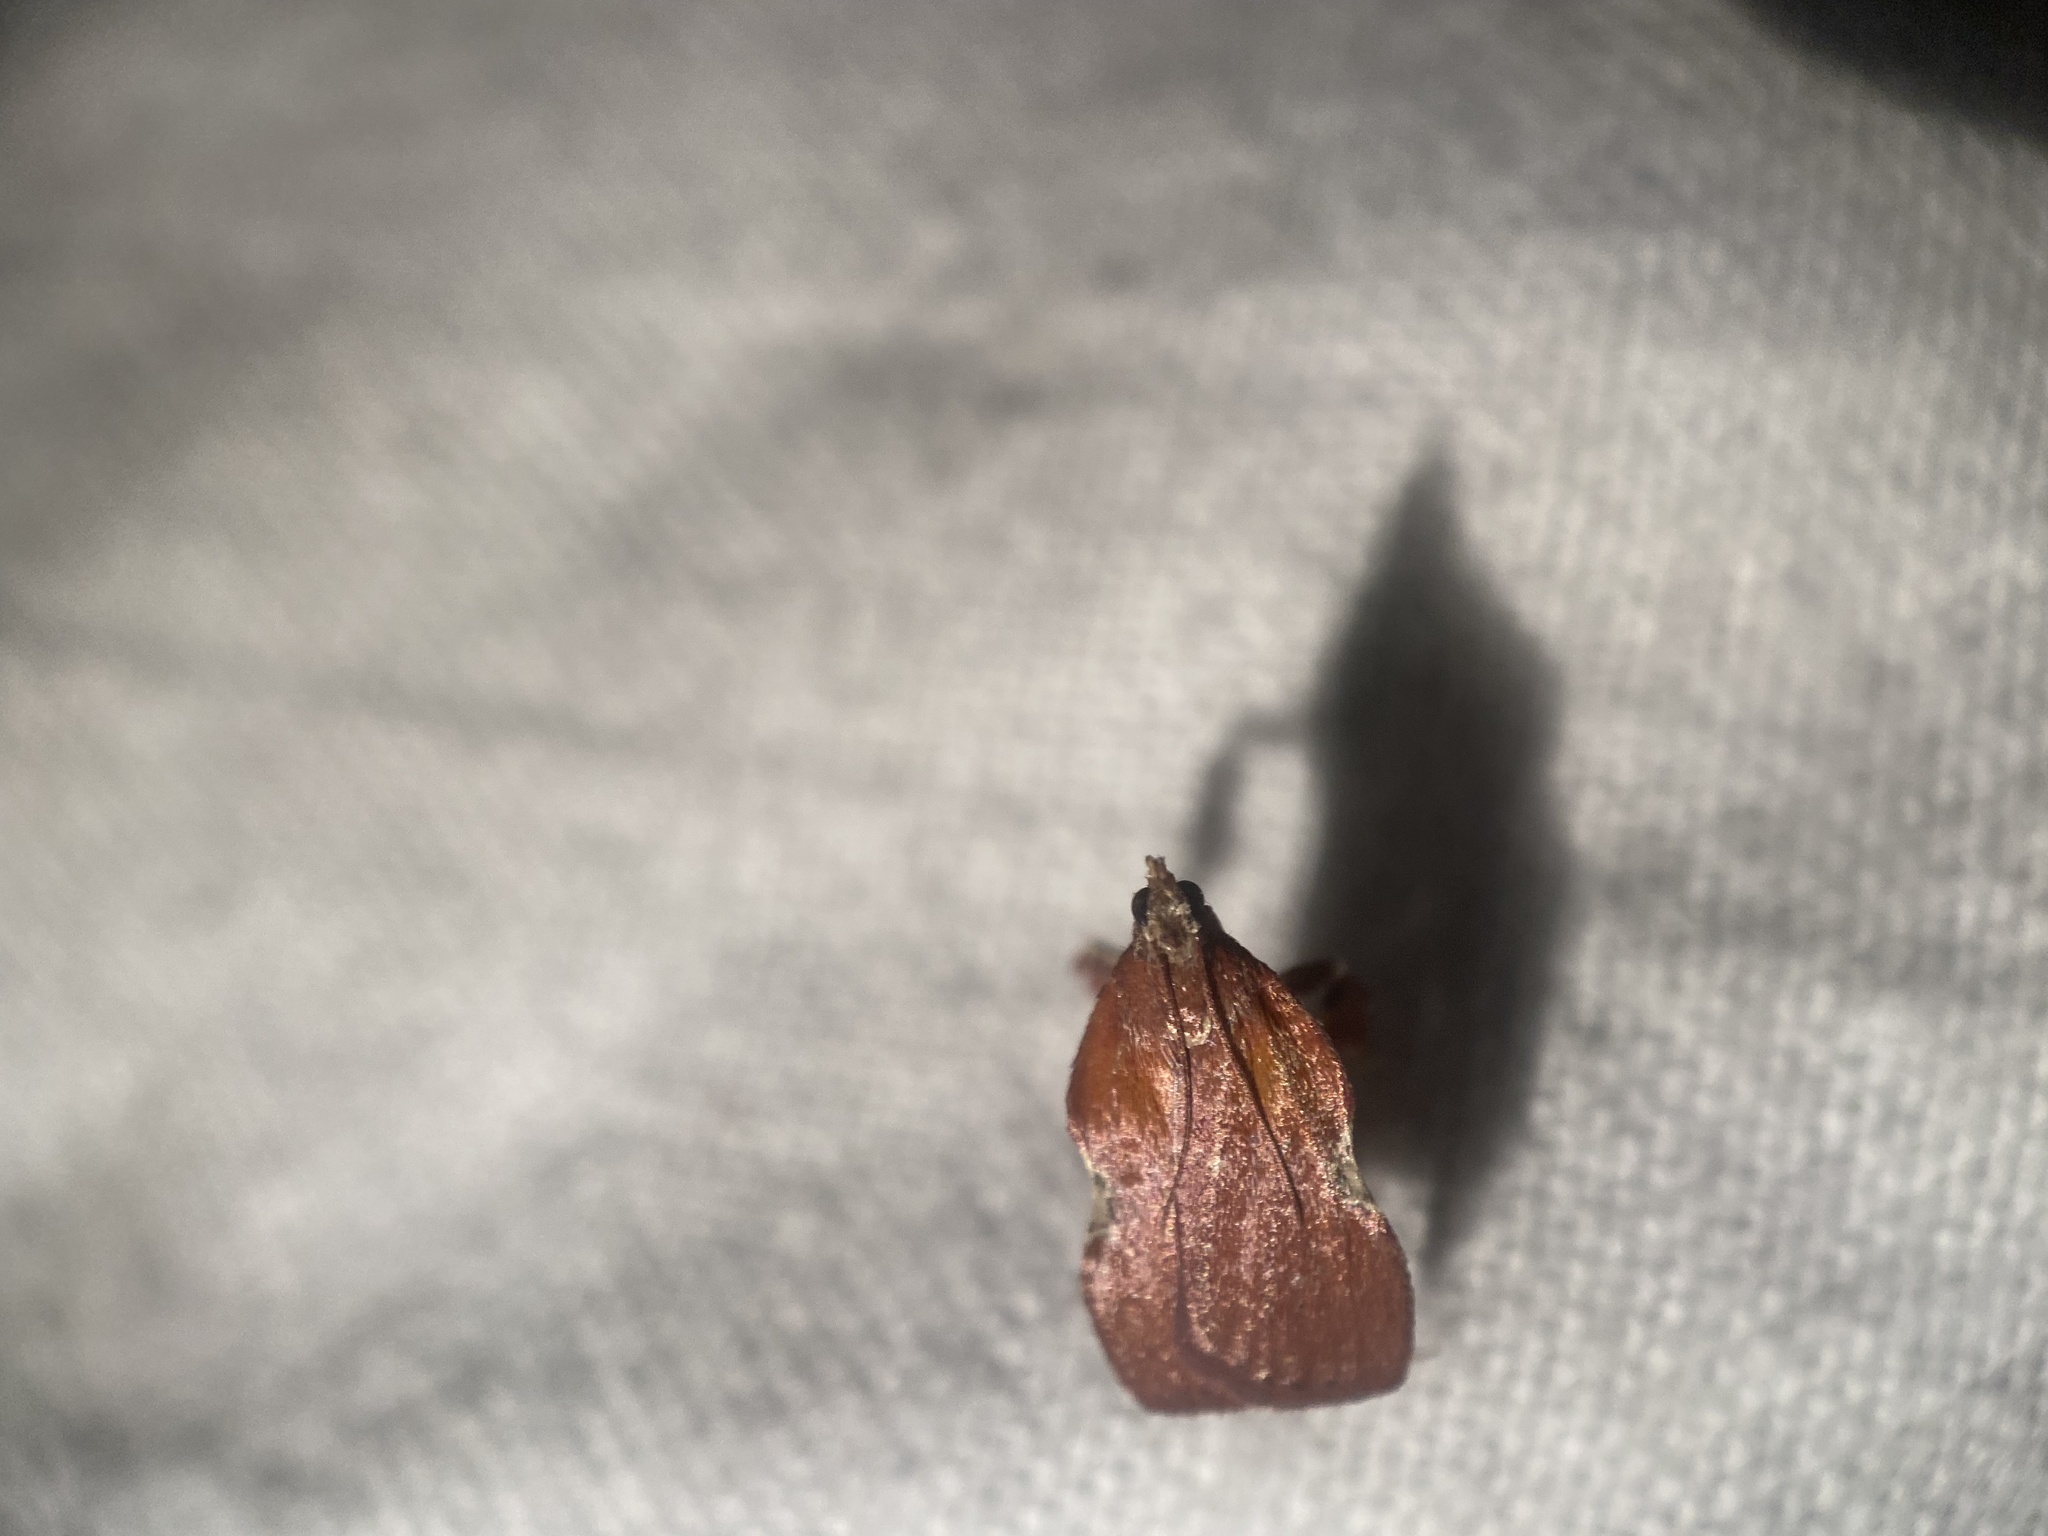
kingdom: Animalia
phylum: Arthropoda
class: Insecta
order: Lepidoptera
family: Pyralidae
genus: Galasa
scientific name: Galasa nigrinodis
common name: Boxwood leaftier moth
